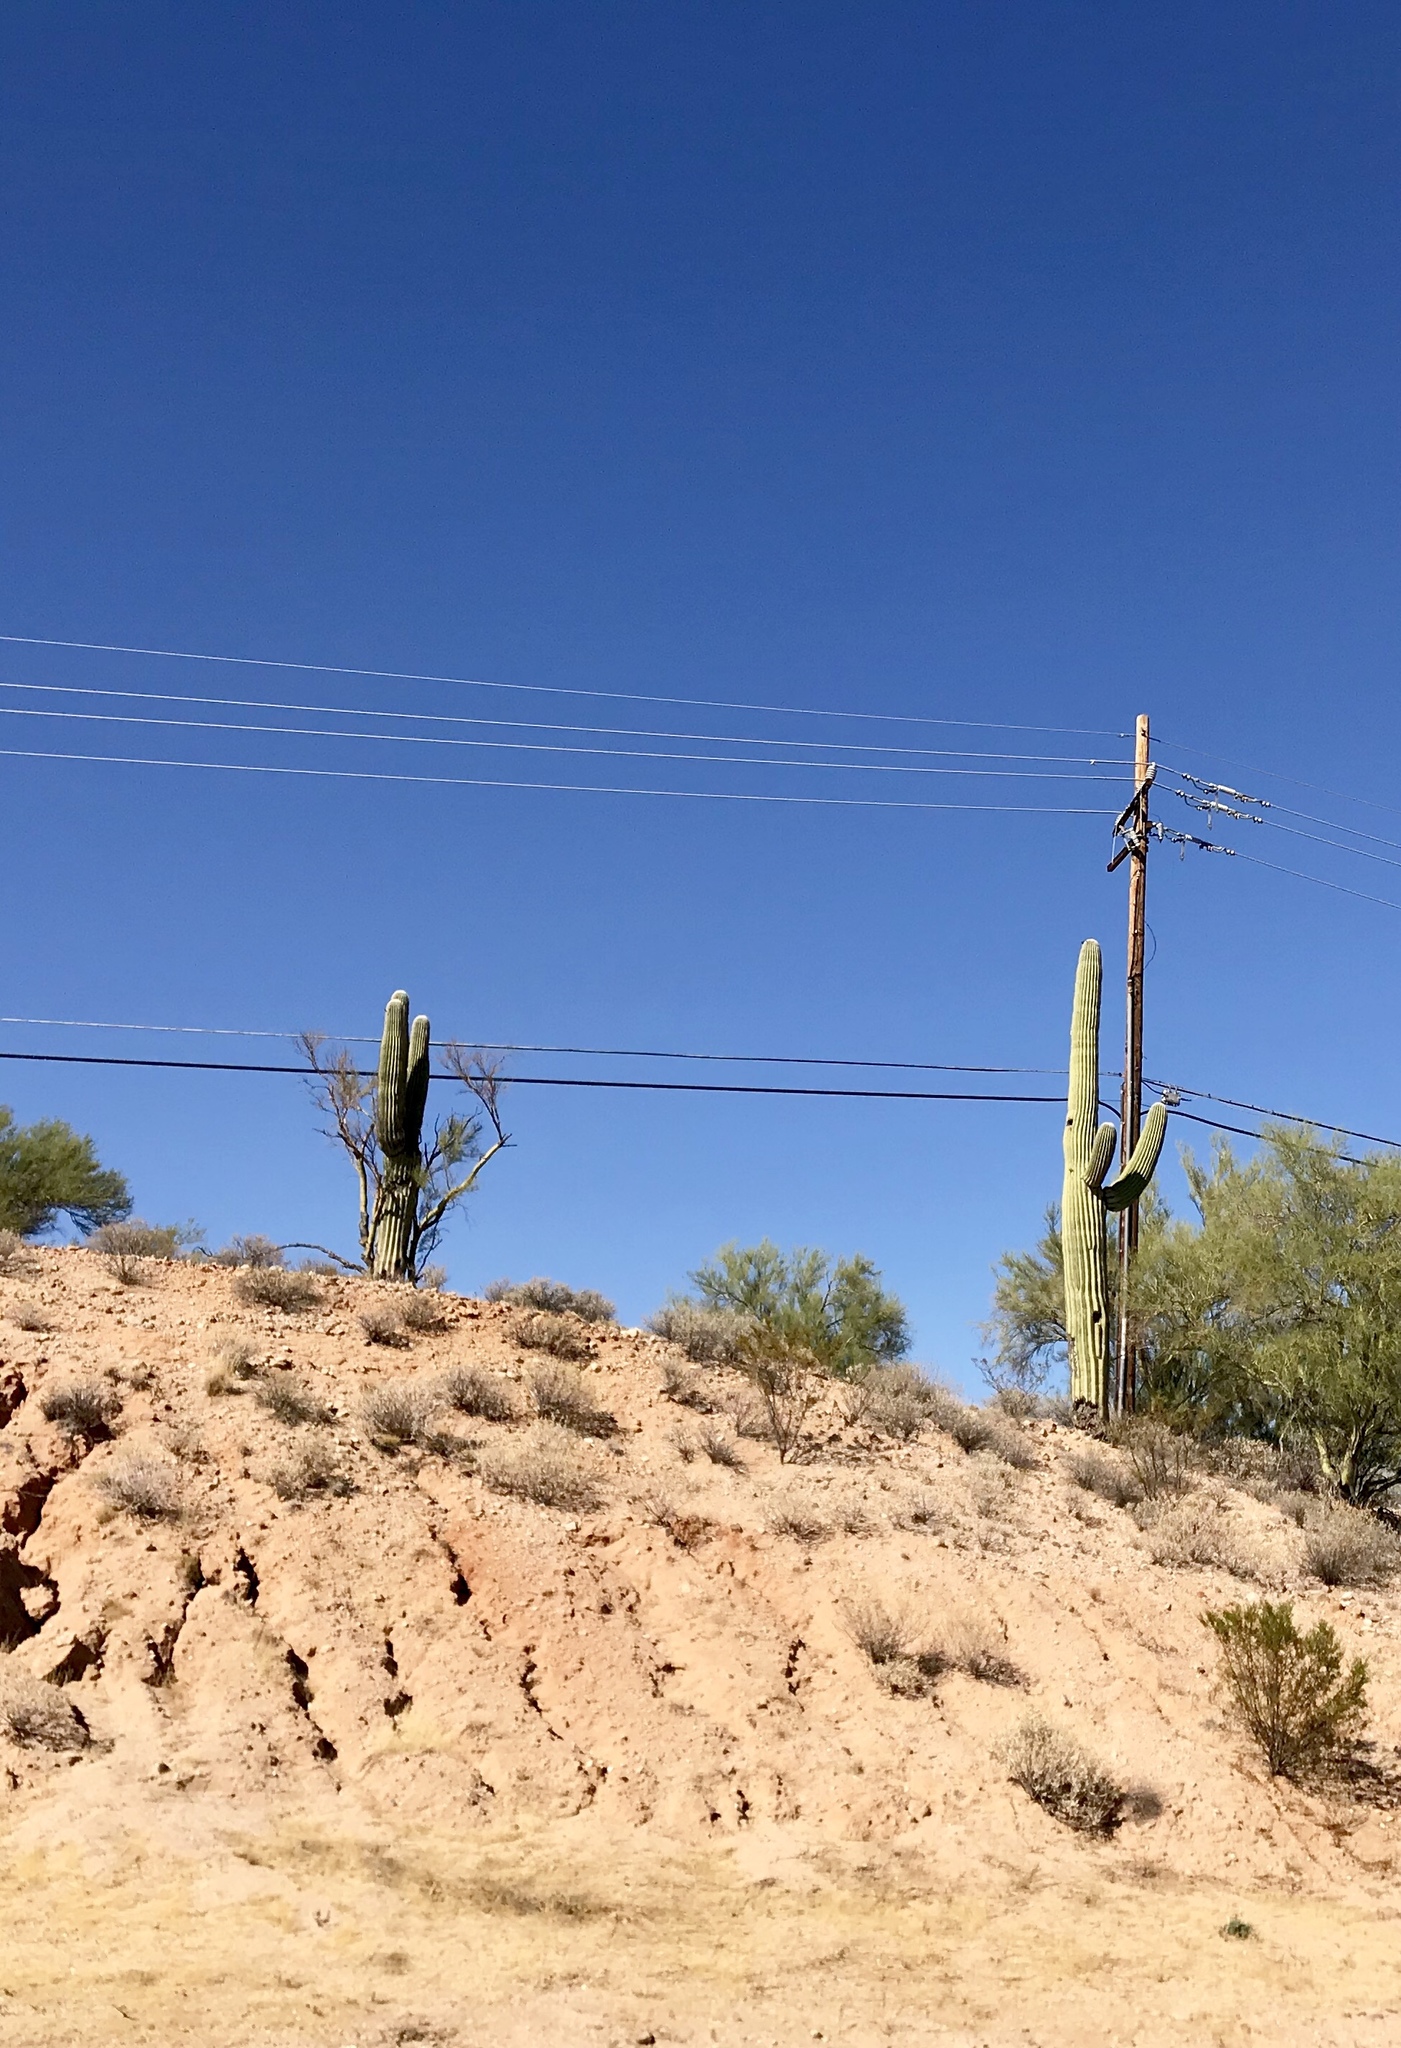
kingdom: Plantae
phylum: Tracheophyta
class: Magnoliopsida
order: Caryophyllales
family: Cactaceae
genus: Carnegiea
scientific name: Carnegiea gigantea
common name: Saguaro
